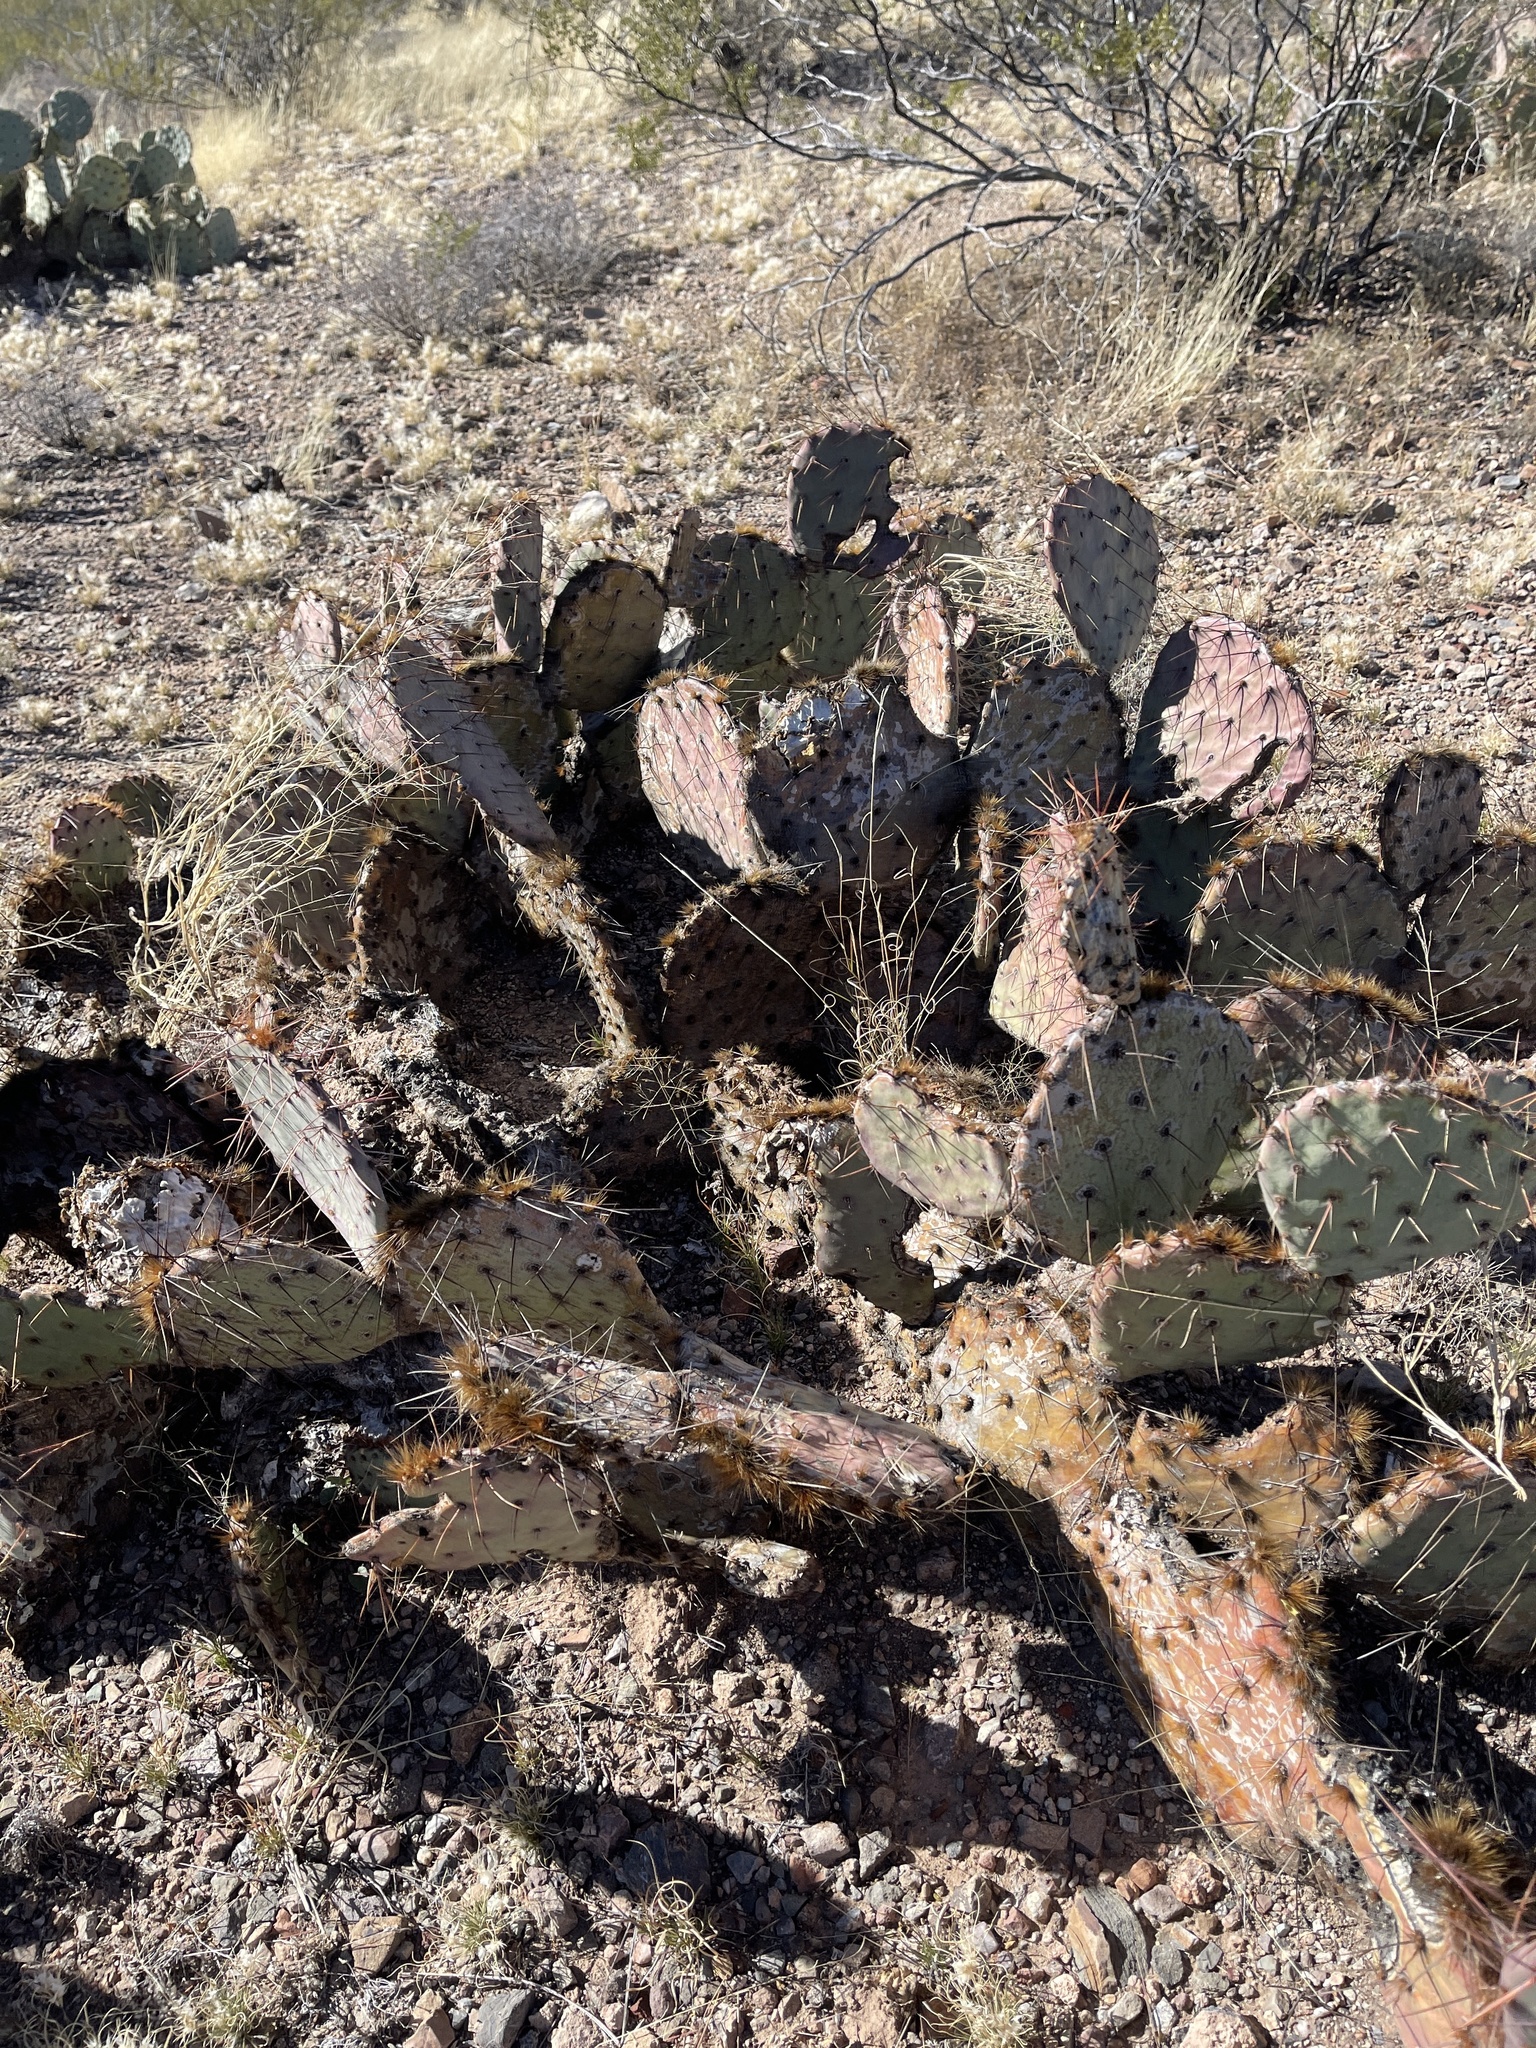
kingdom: Plantae
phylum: Tracheophyta
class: Magnoliopsida
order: Caryophyllales
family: Cactaceae
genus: Opuntia
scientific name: Opuntia phaeacantha
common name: New mexico prickly-pear
